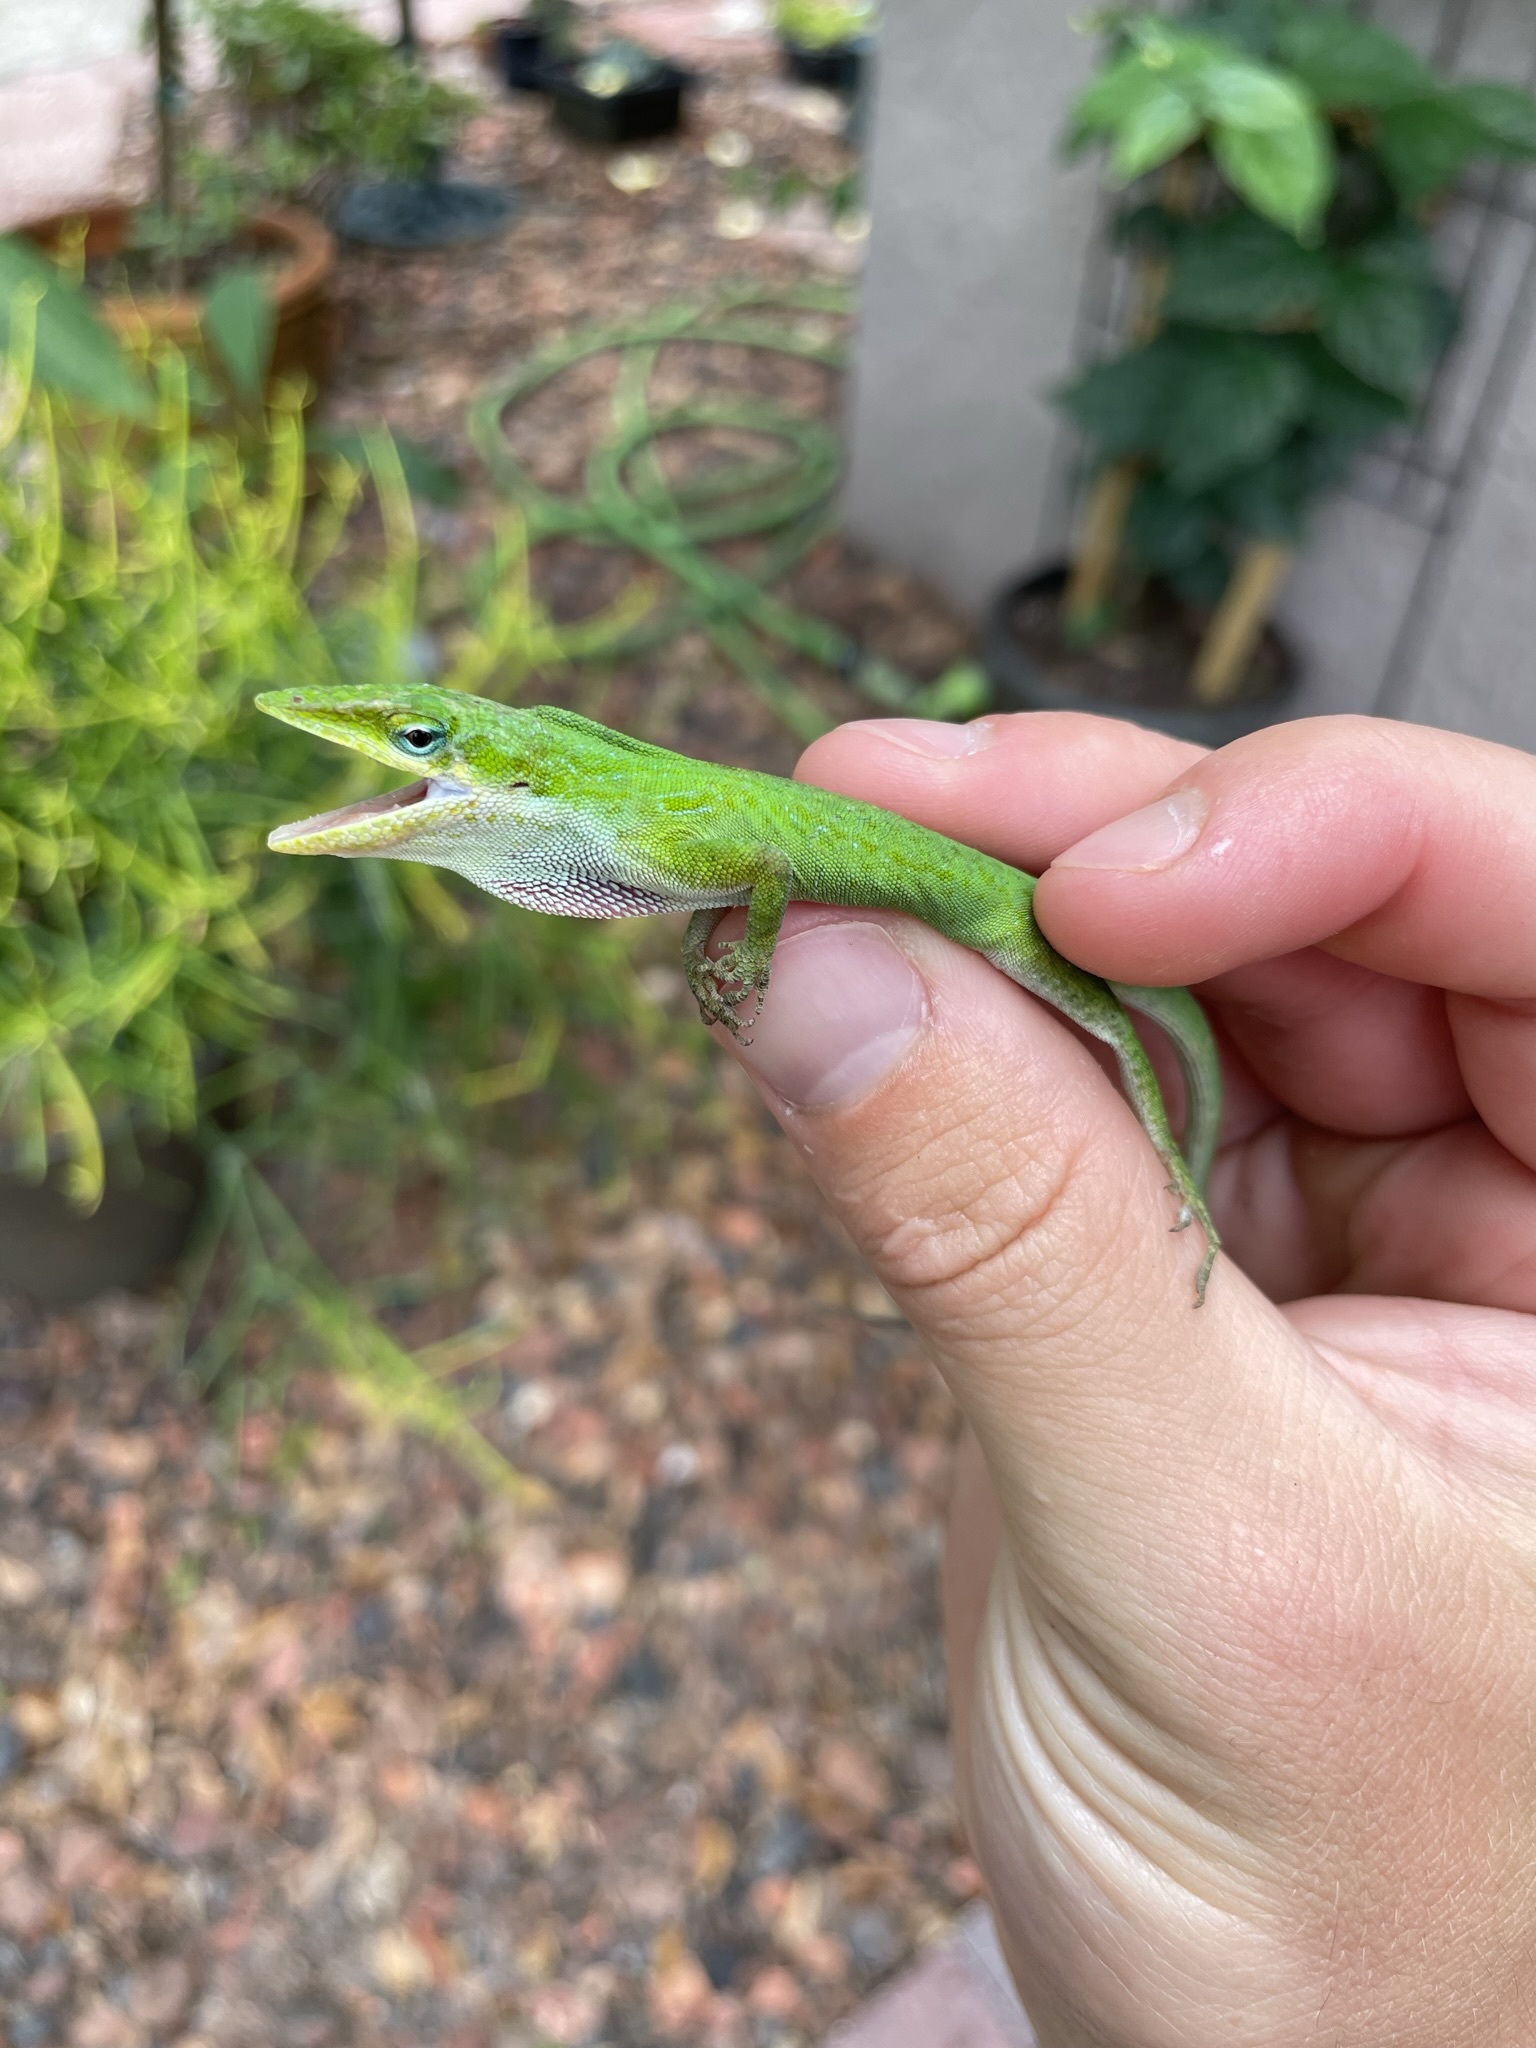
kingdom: Animalia
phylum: Chordata
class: Squamata
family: Dactyloidae
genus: Anolis
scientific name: Anolis carolinensis
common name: Green anole
